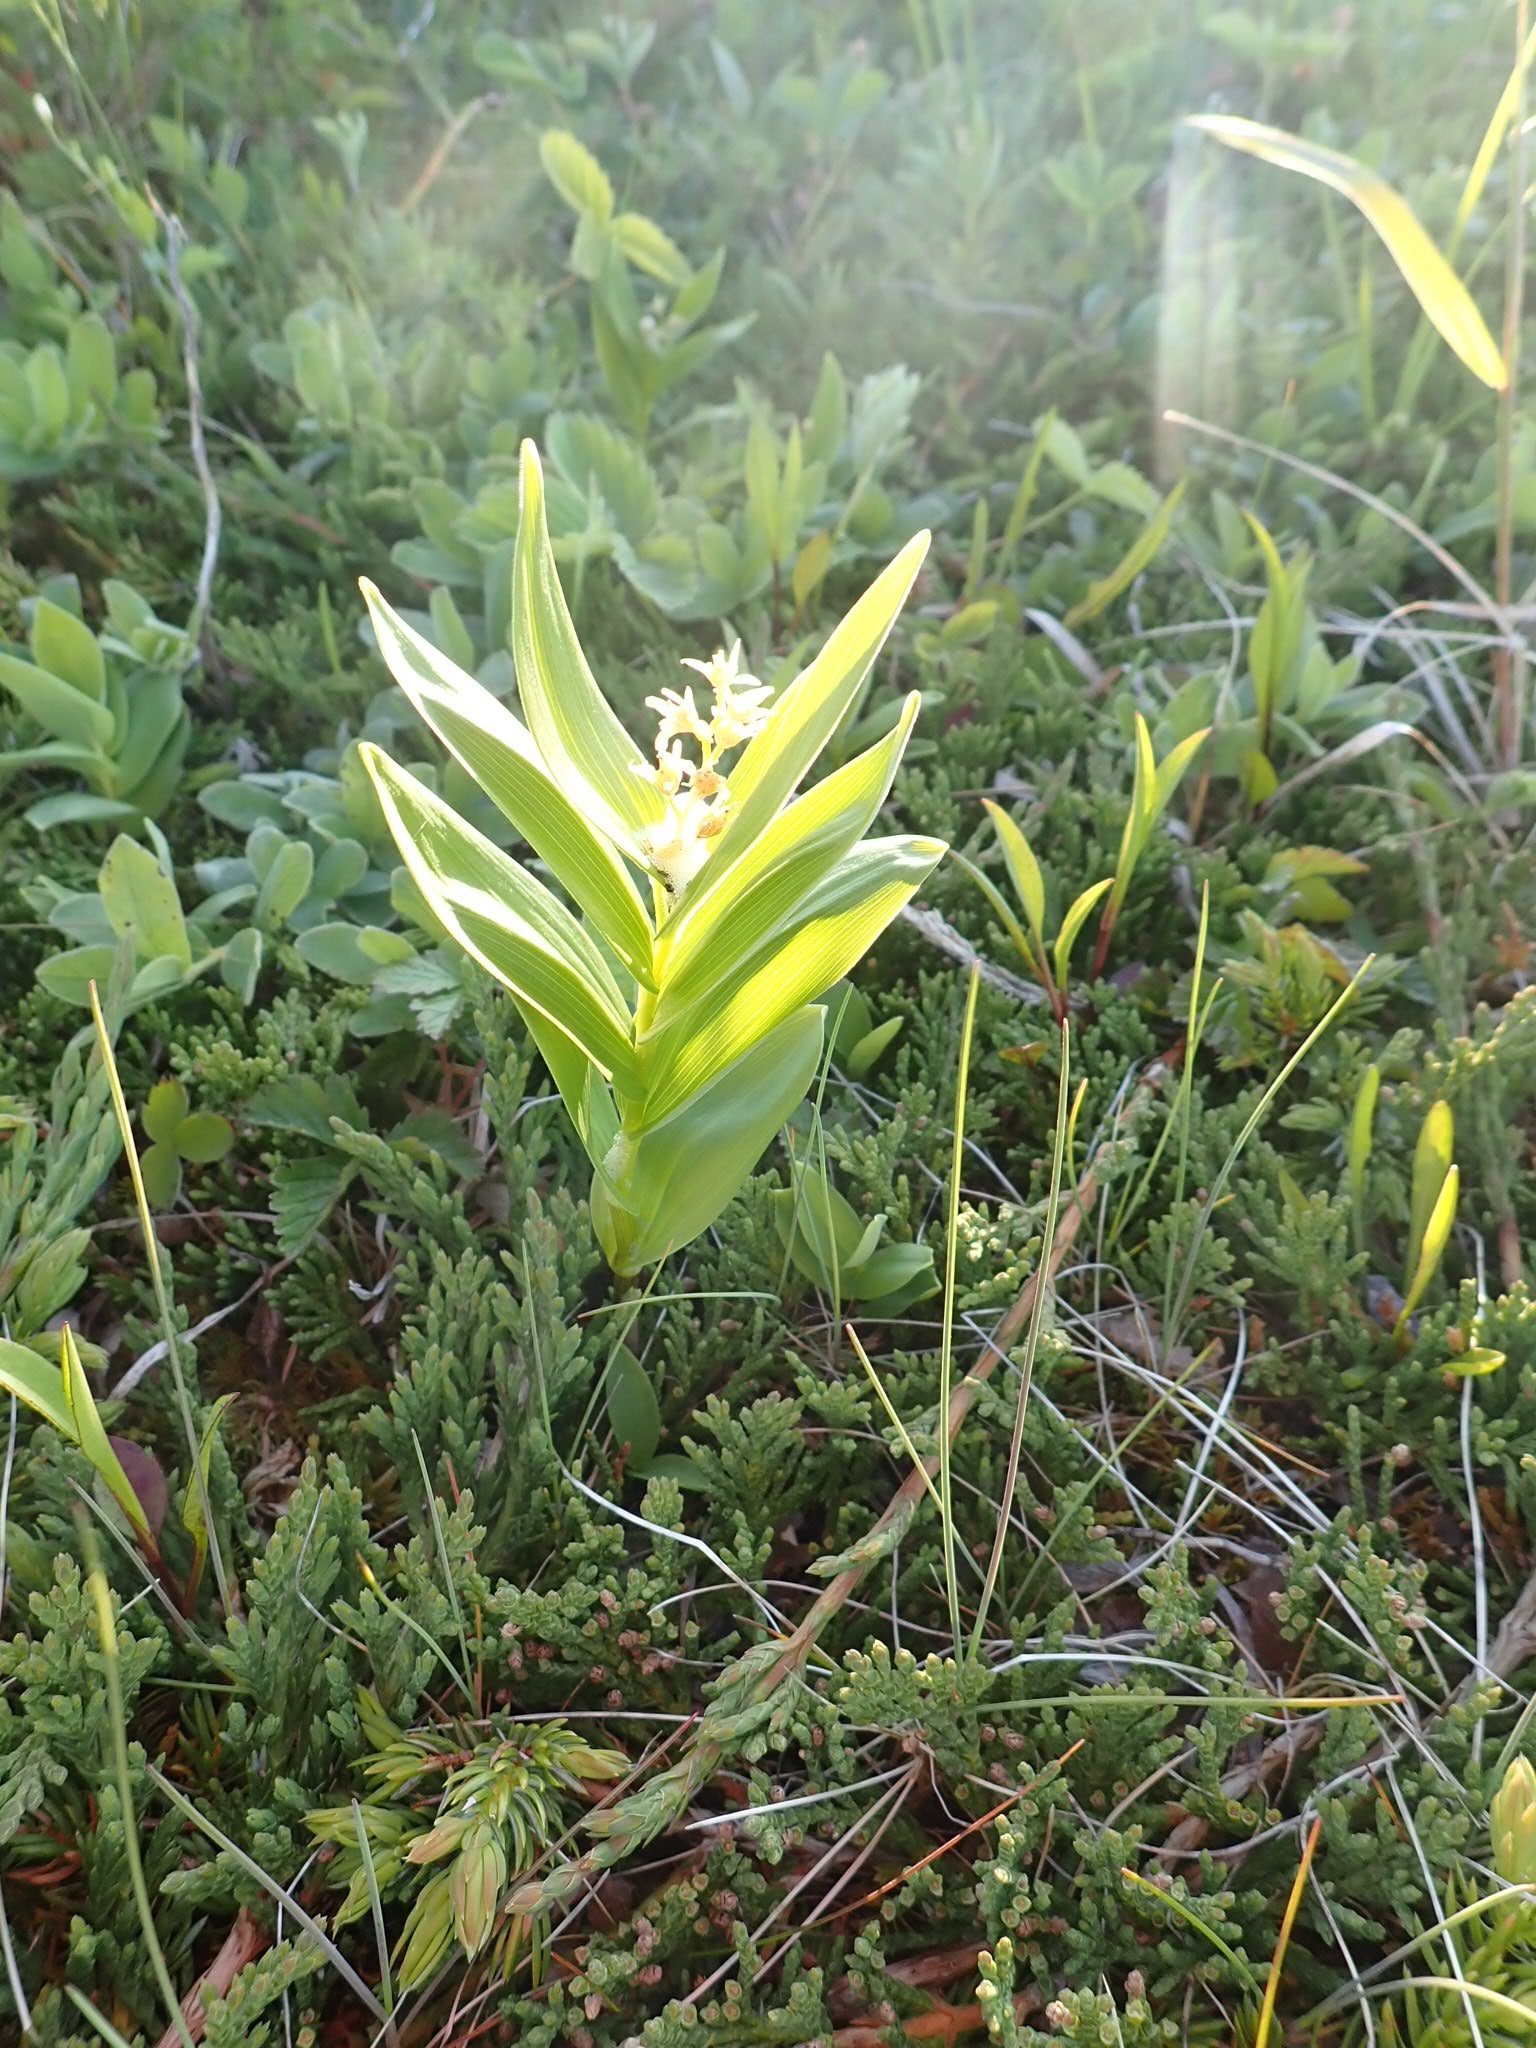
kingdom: Plantae
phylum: Tracheophyta
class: Liliopsida
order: Asparagales
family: Asparagaceae
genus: Maianthemum
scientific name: Maianthemum stellatum
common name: Little false solomon's seal
